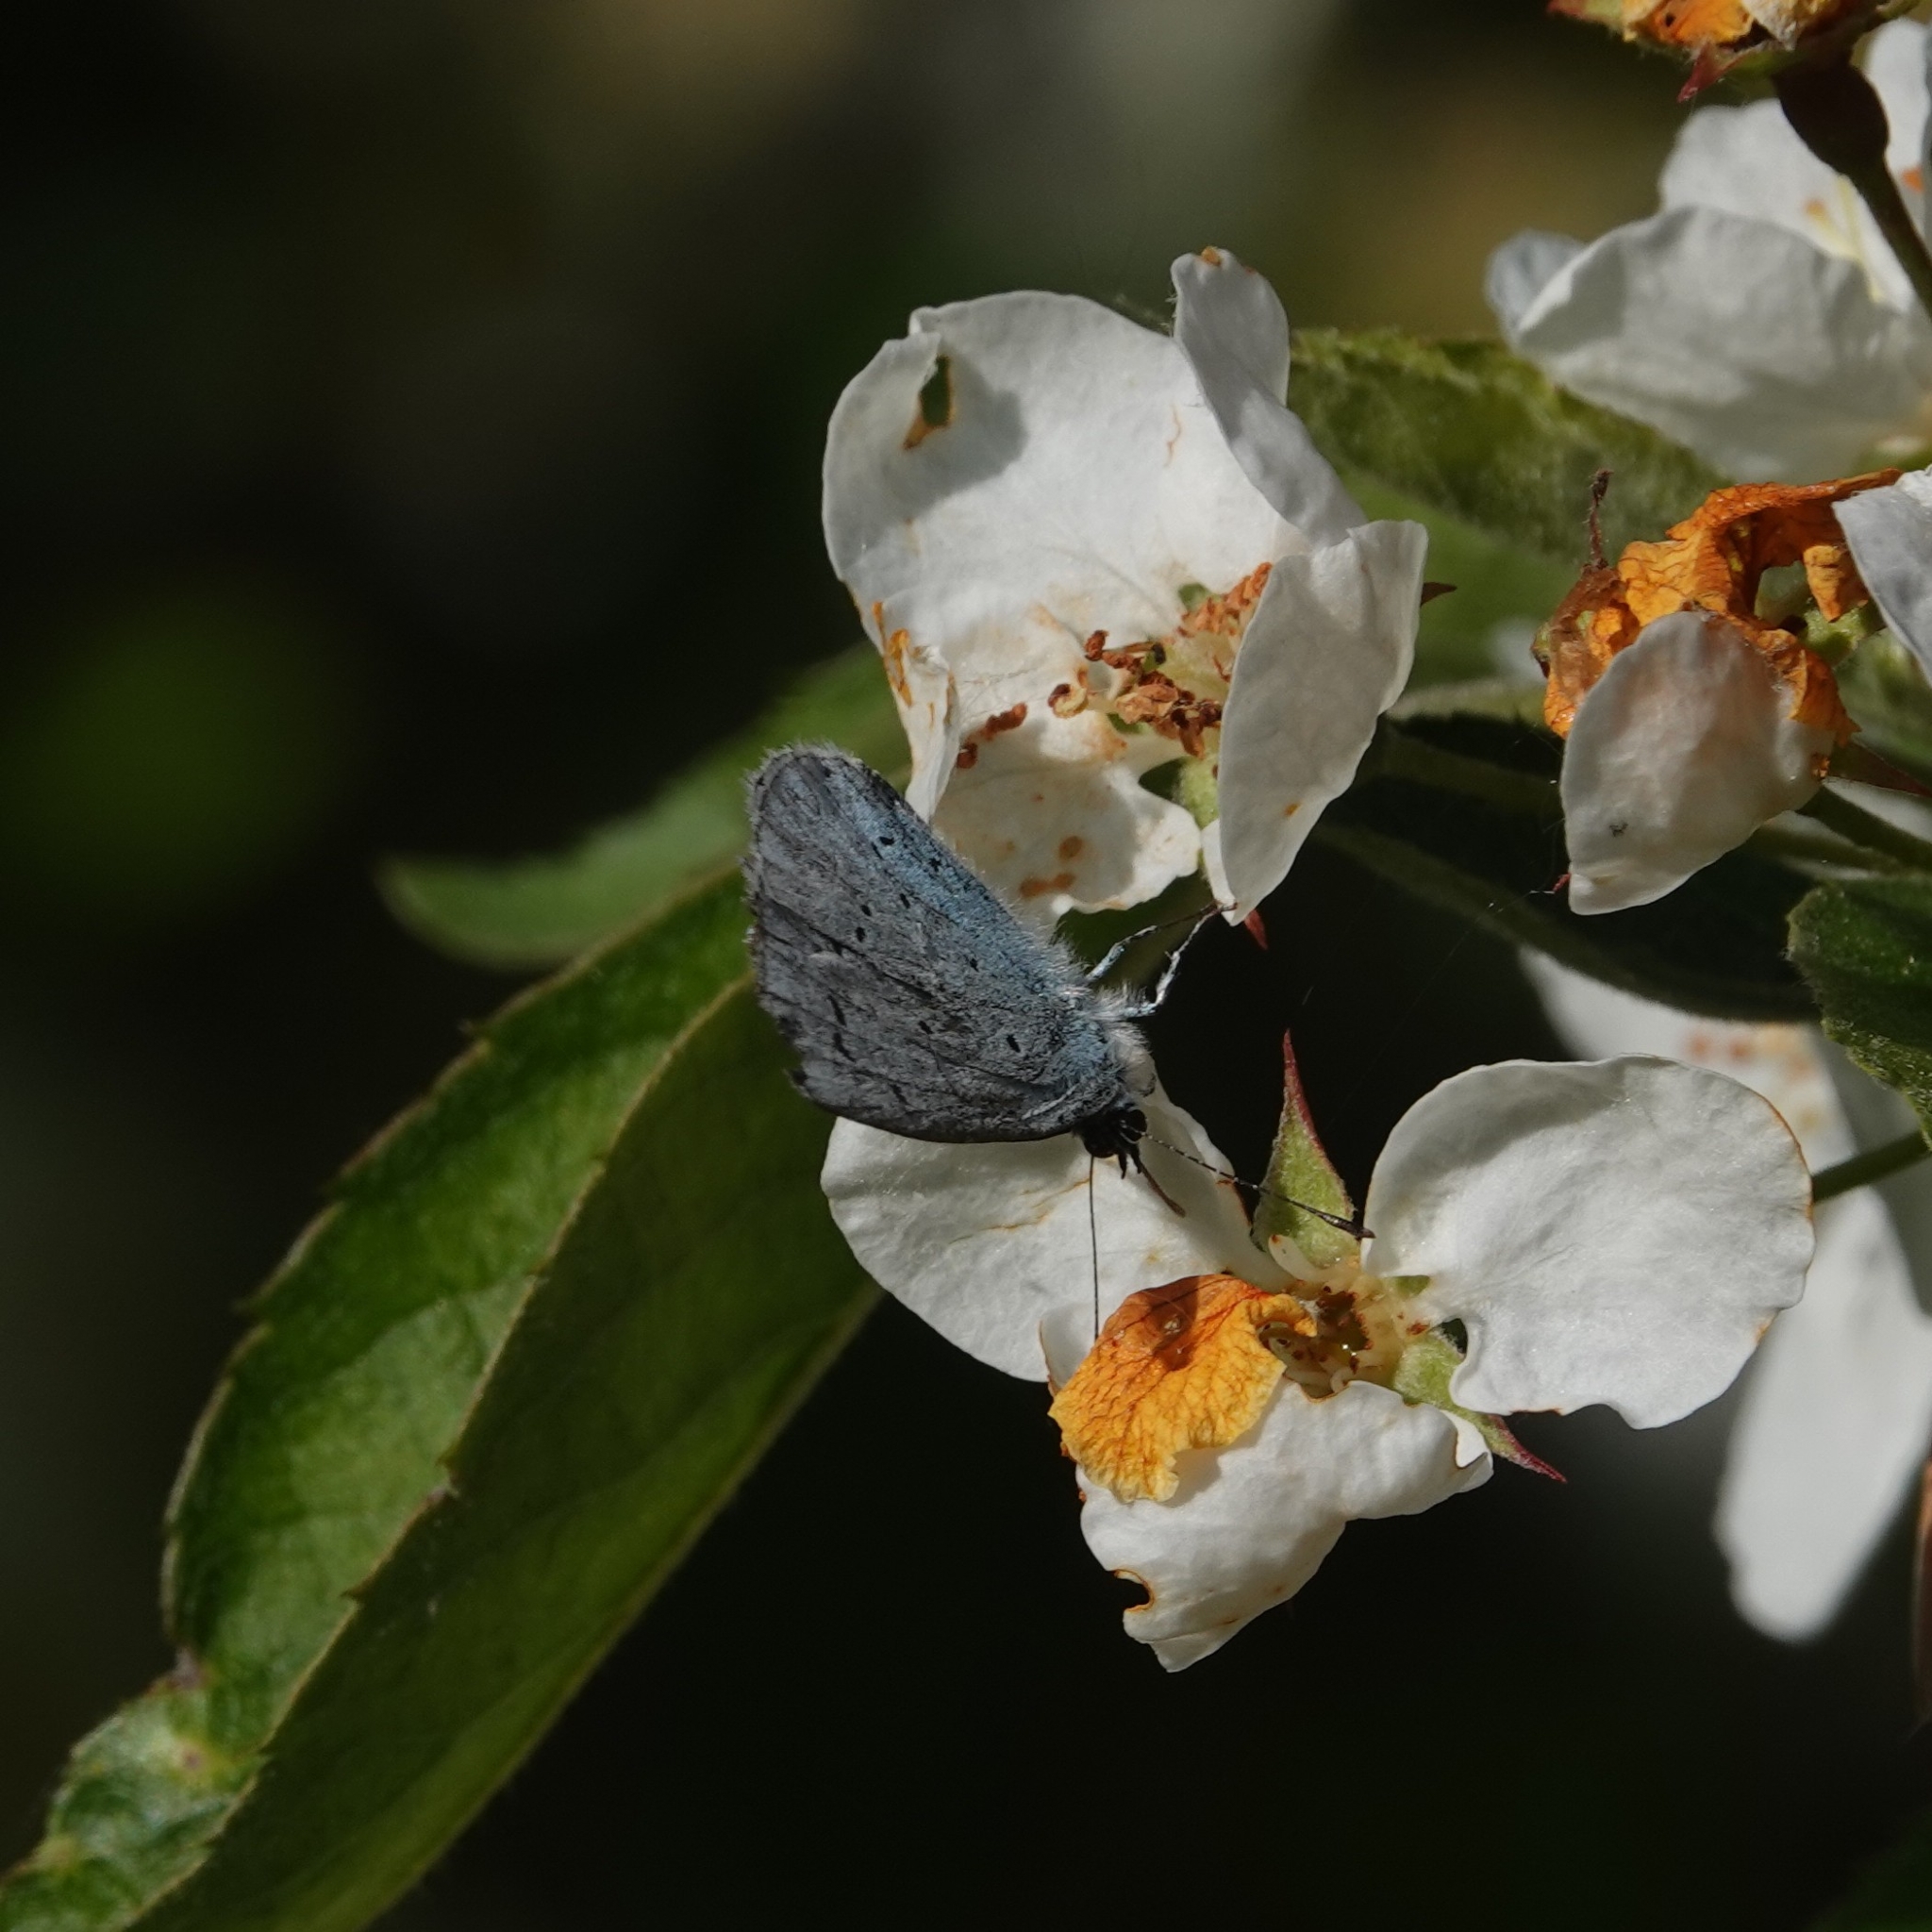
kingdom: Animalia
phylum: Arthropoda
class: Insecta
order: Lepidoptera
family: Lycaenidae
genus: Celastrina
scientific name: Celastrina argiolus
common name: Holly blue
